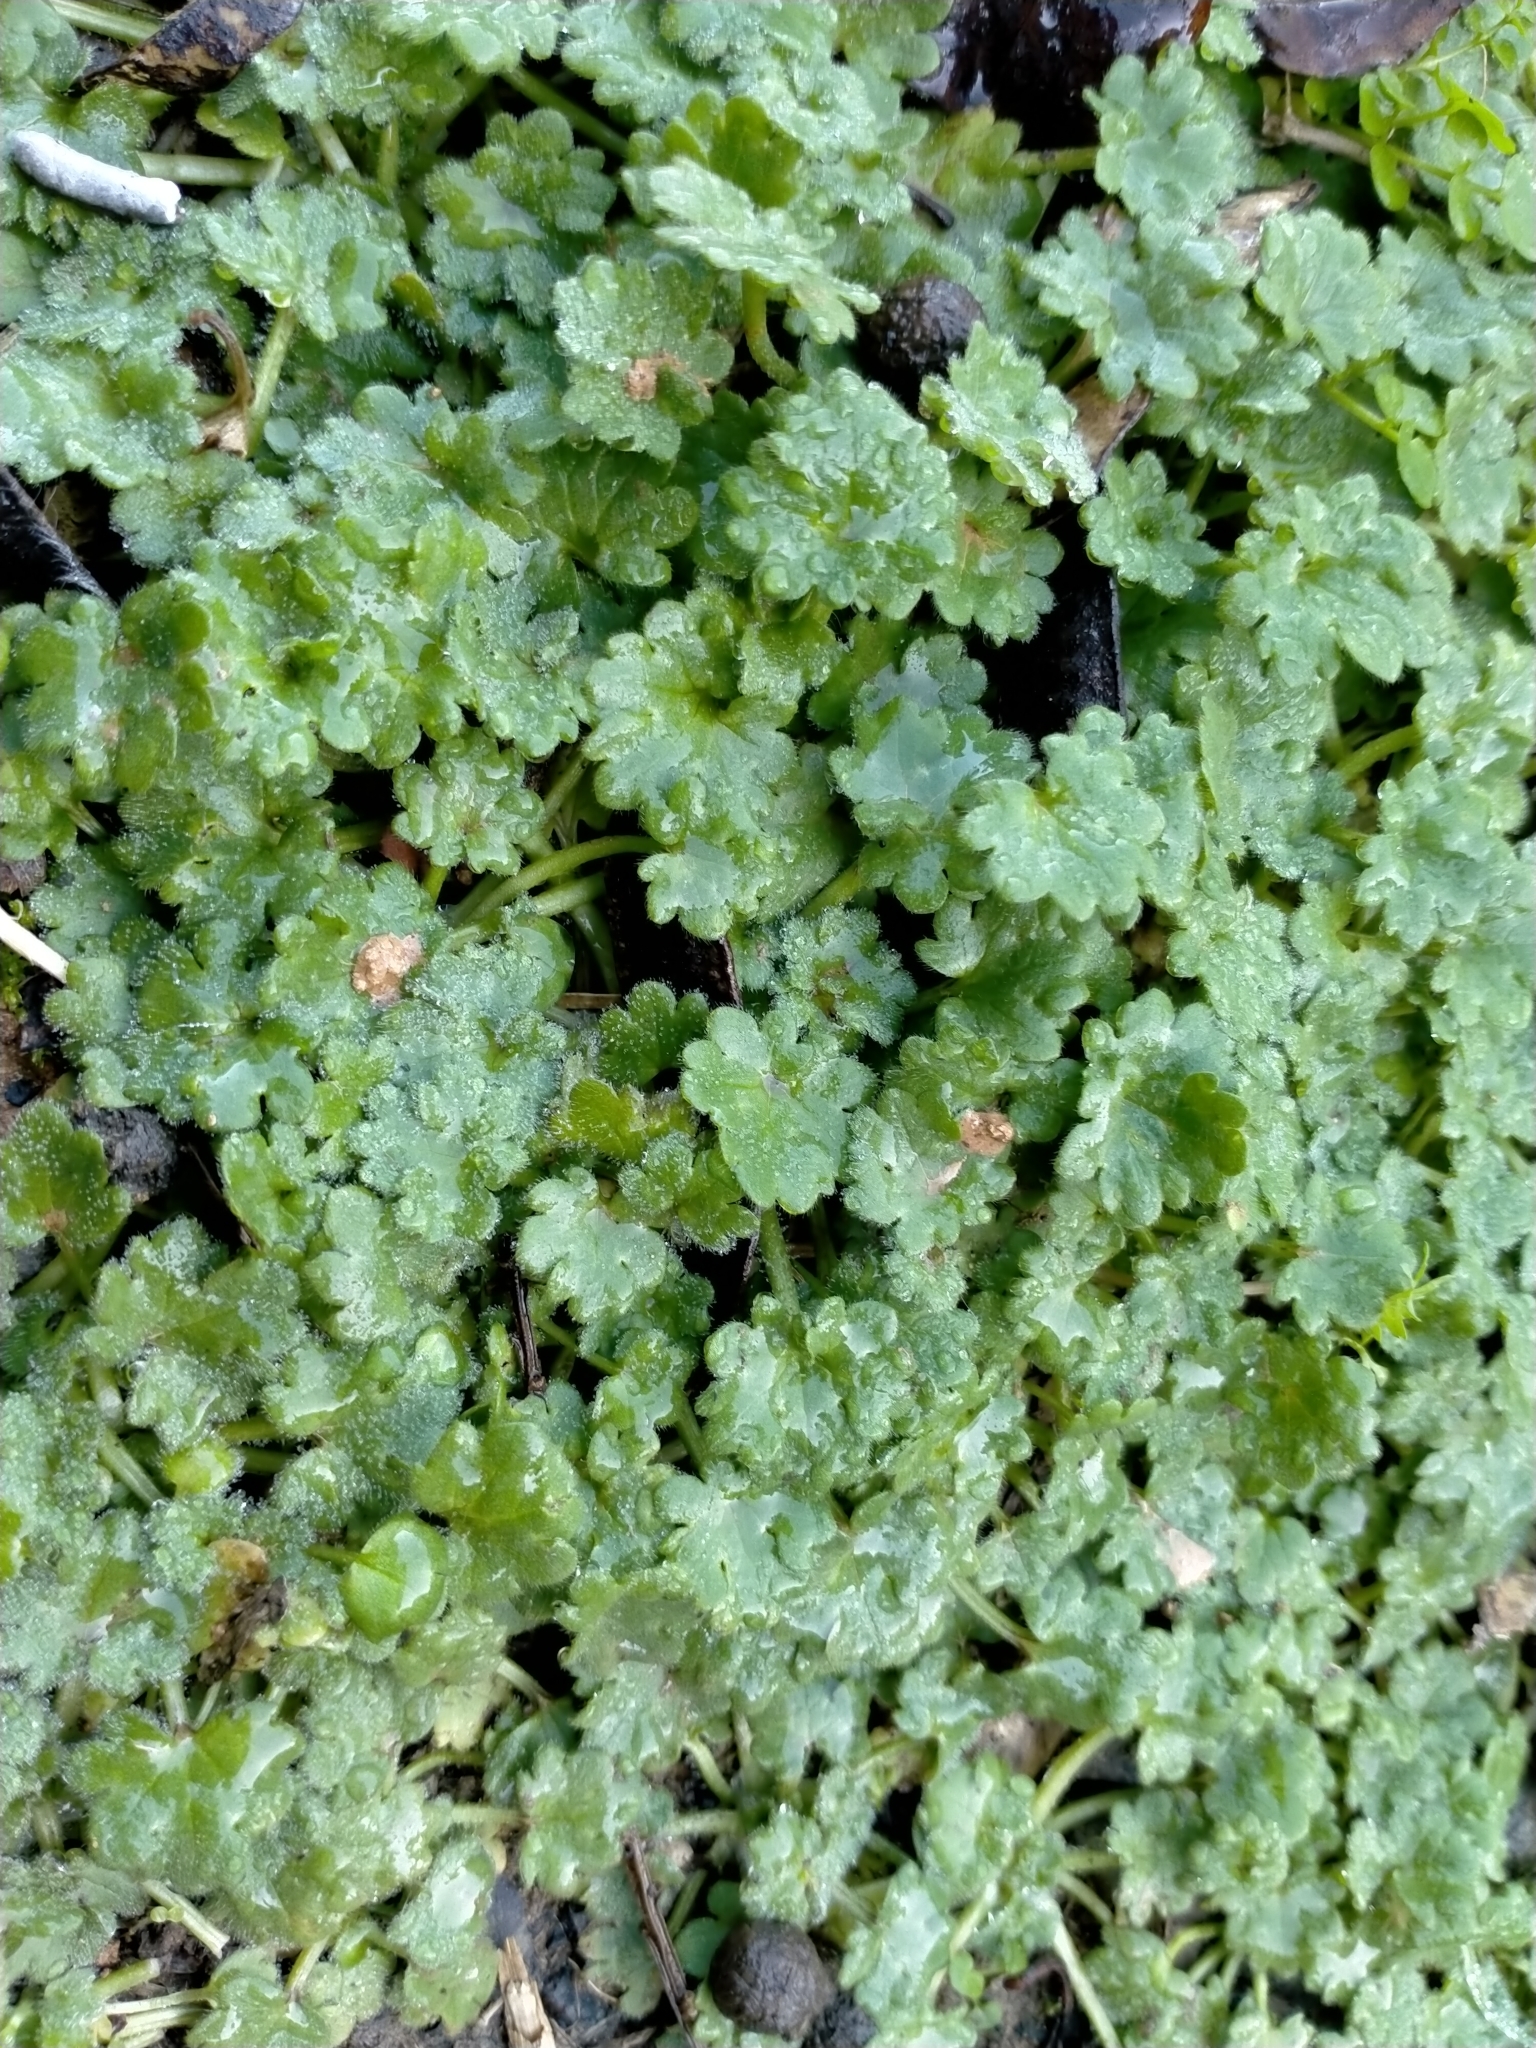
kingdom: Plantae
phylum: Tracheophyta
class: Magnoliopsida
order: Ranunculales
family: Ranunculaceae
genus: Ranunculus
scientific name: Ranunculus parviflorus
